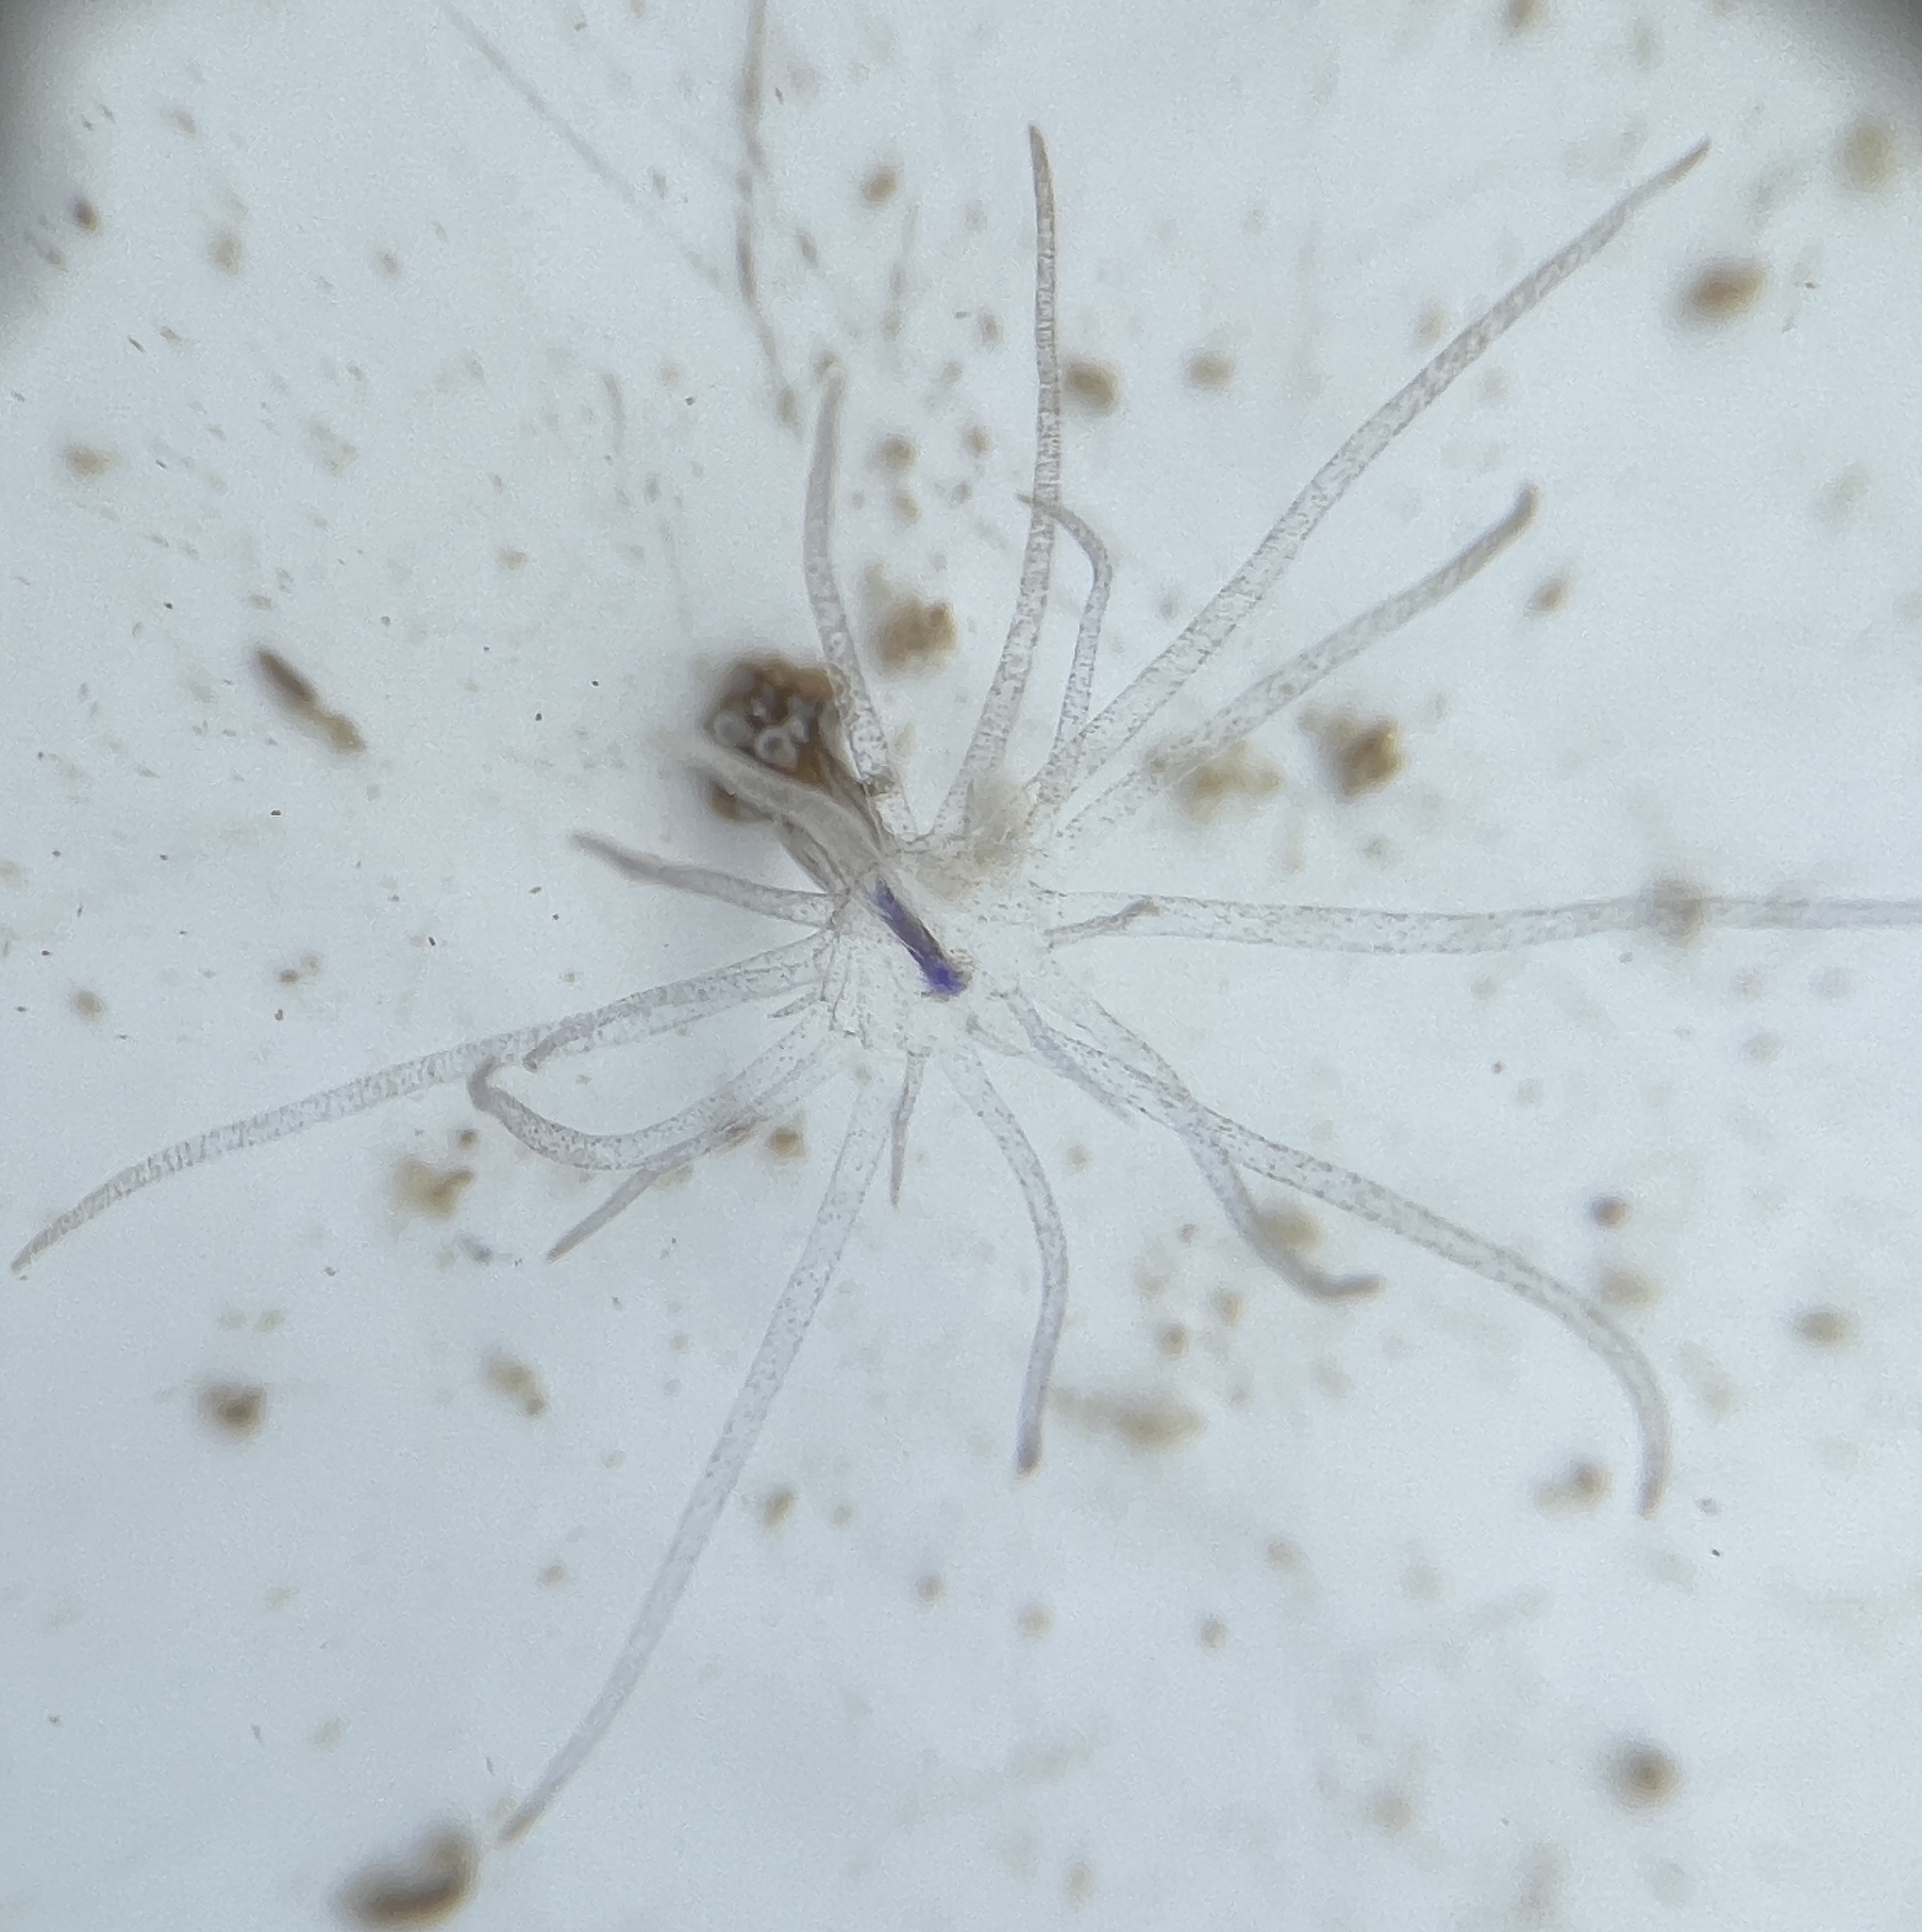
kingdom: Animalia
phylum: Cnidaria
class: Anthozoa
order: Actiniaria
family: Boloceroididae
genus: Bunodeopsis
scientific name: Bunodeopsis globulifera
